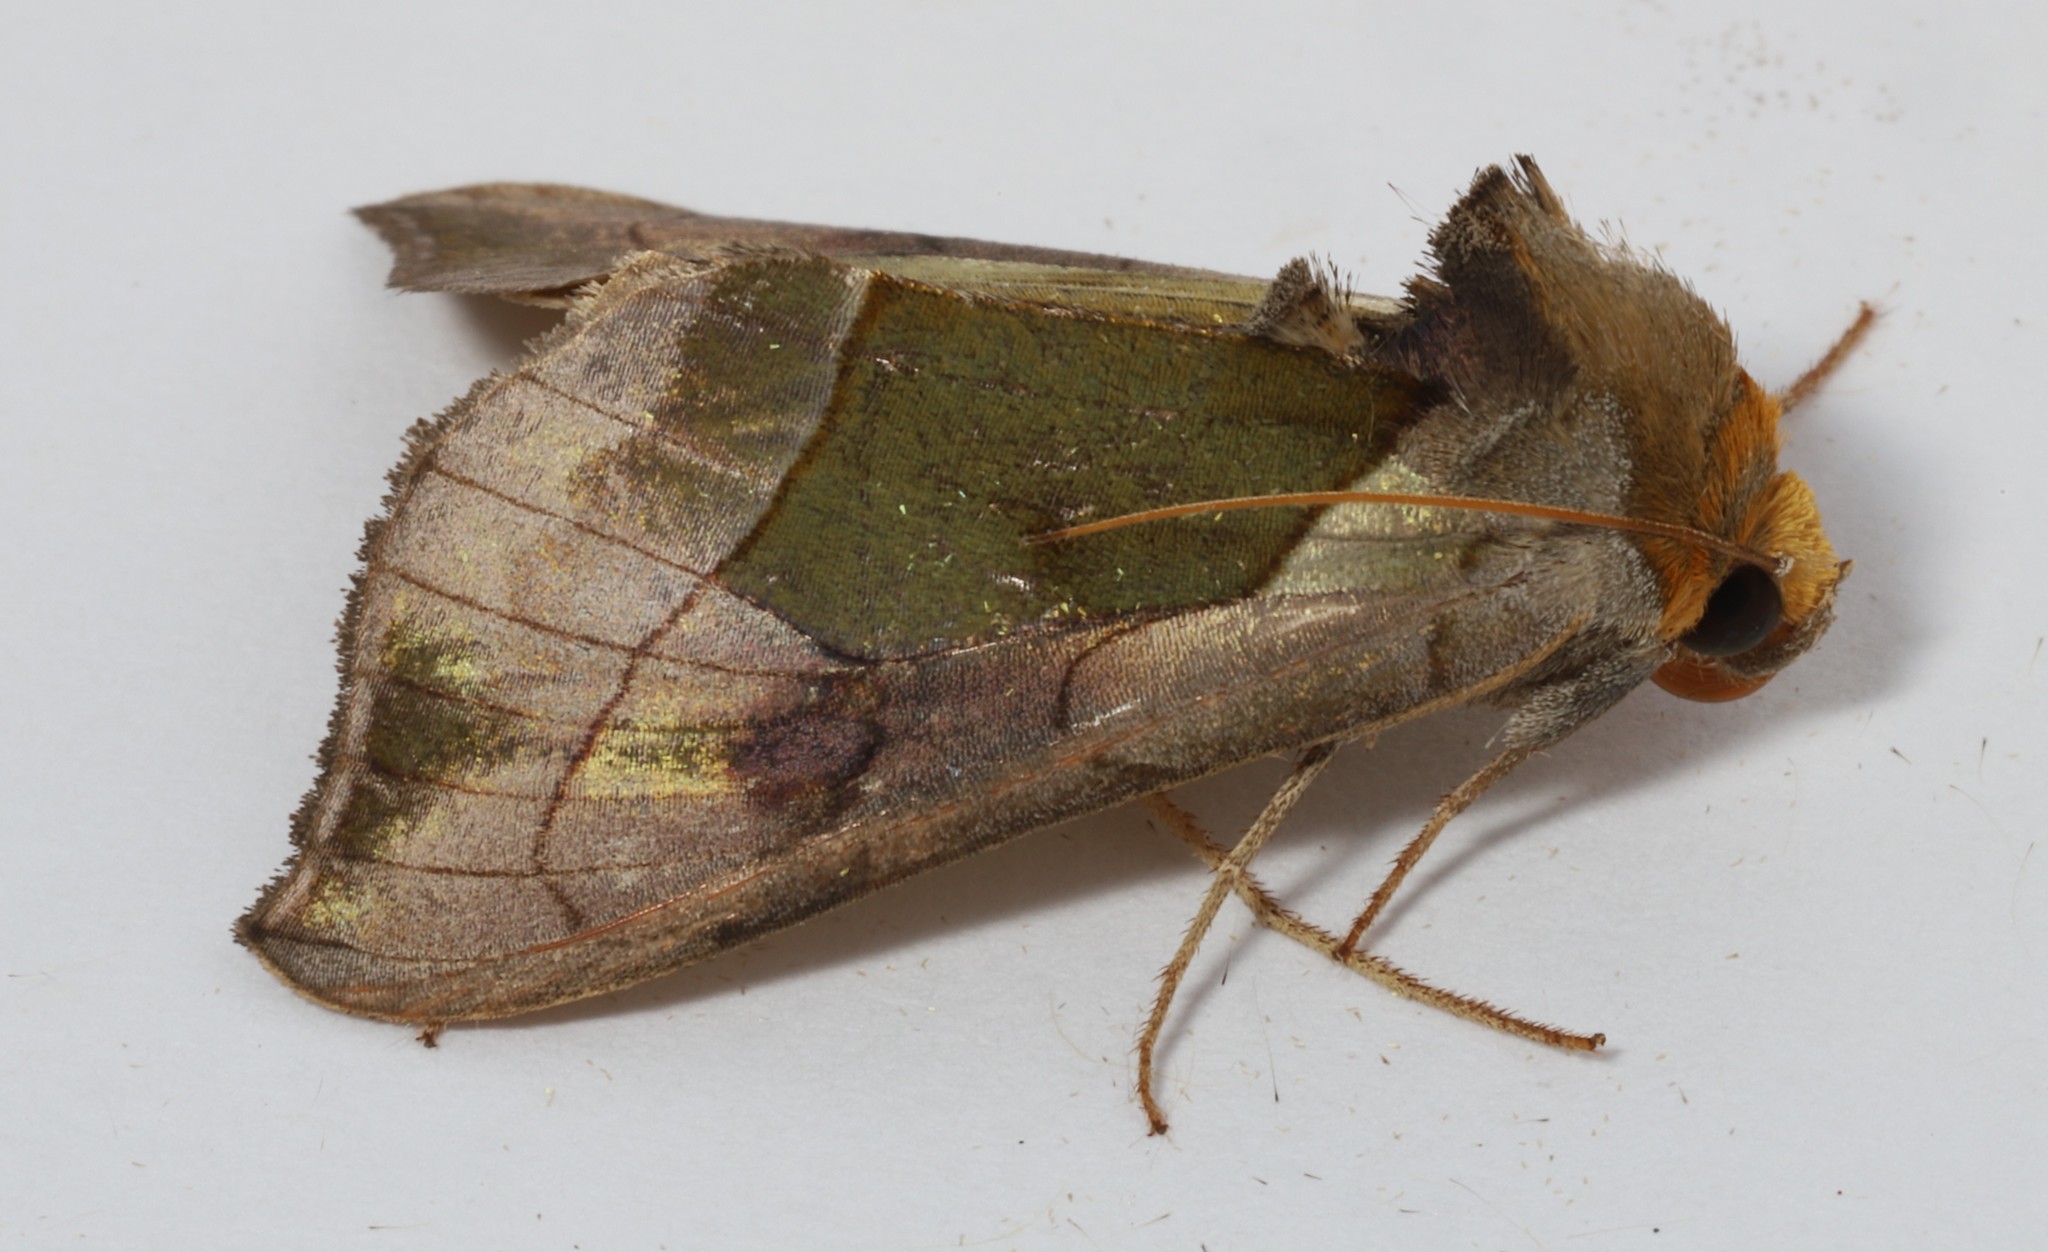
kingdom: Animalia
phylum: Arthropoda
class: Insecta
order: Lepidoptera
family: Noctuidae
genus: Diachrysia
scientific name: Diachrysia balluca
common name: Green-patched looper moth
